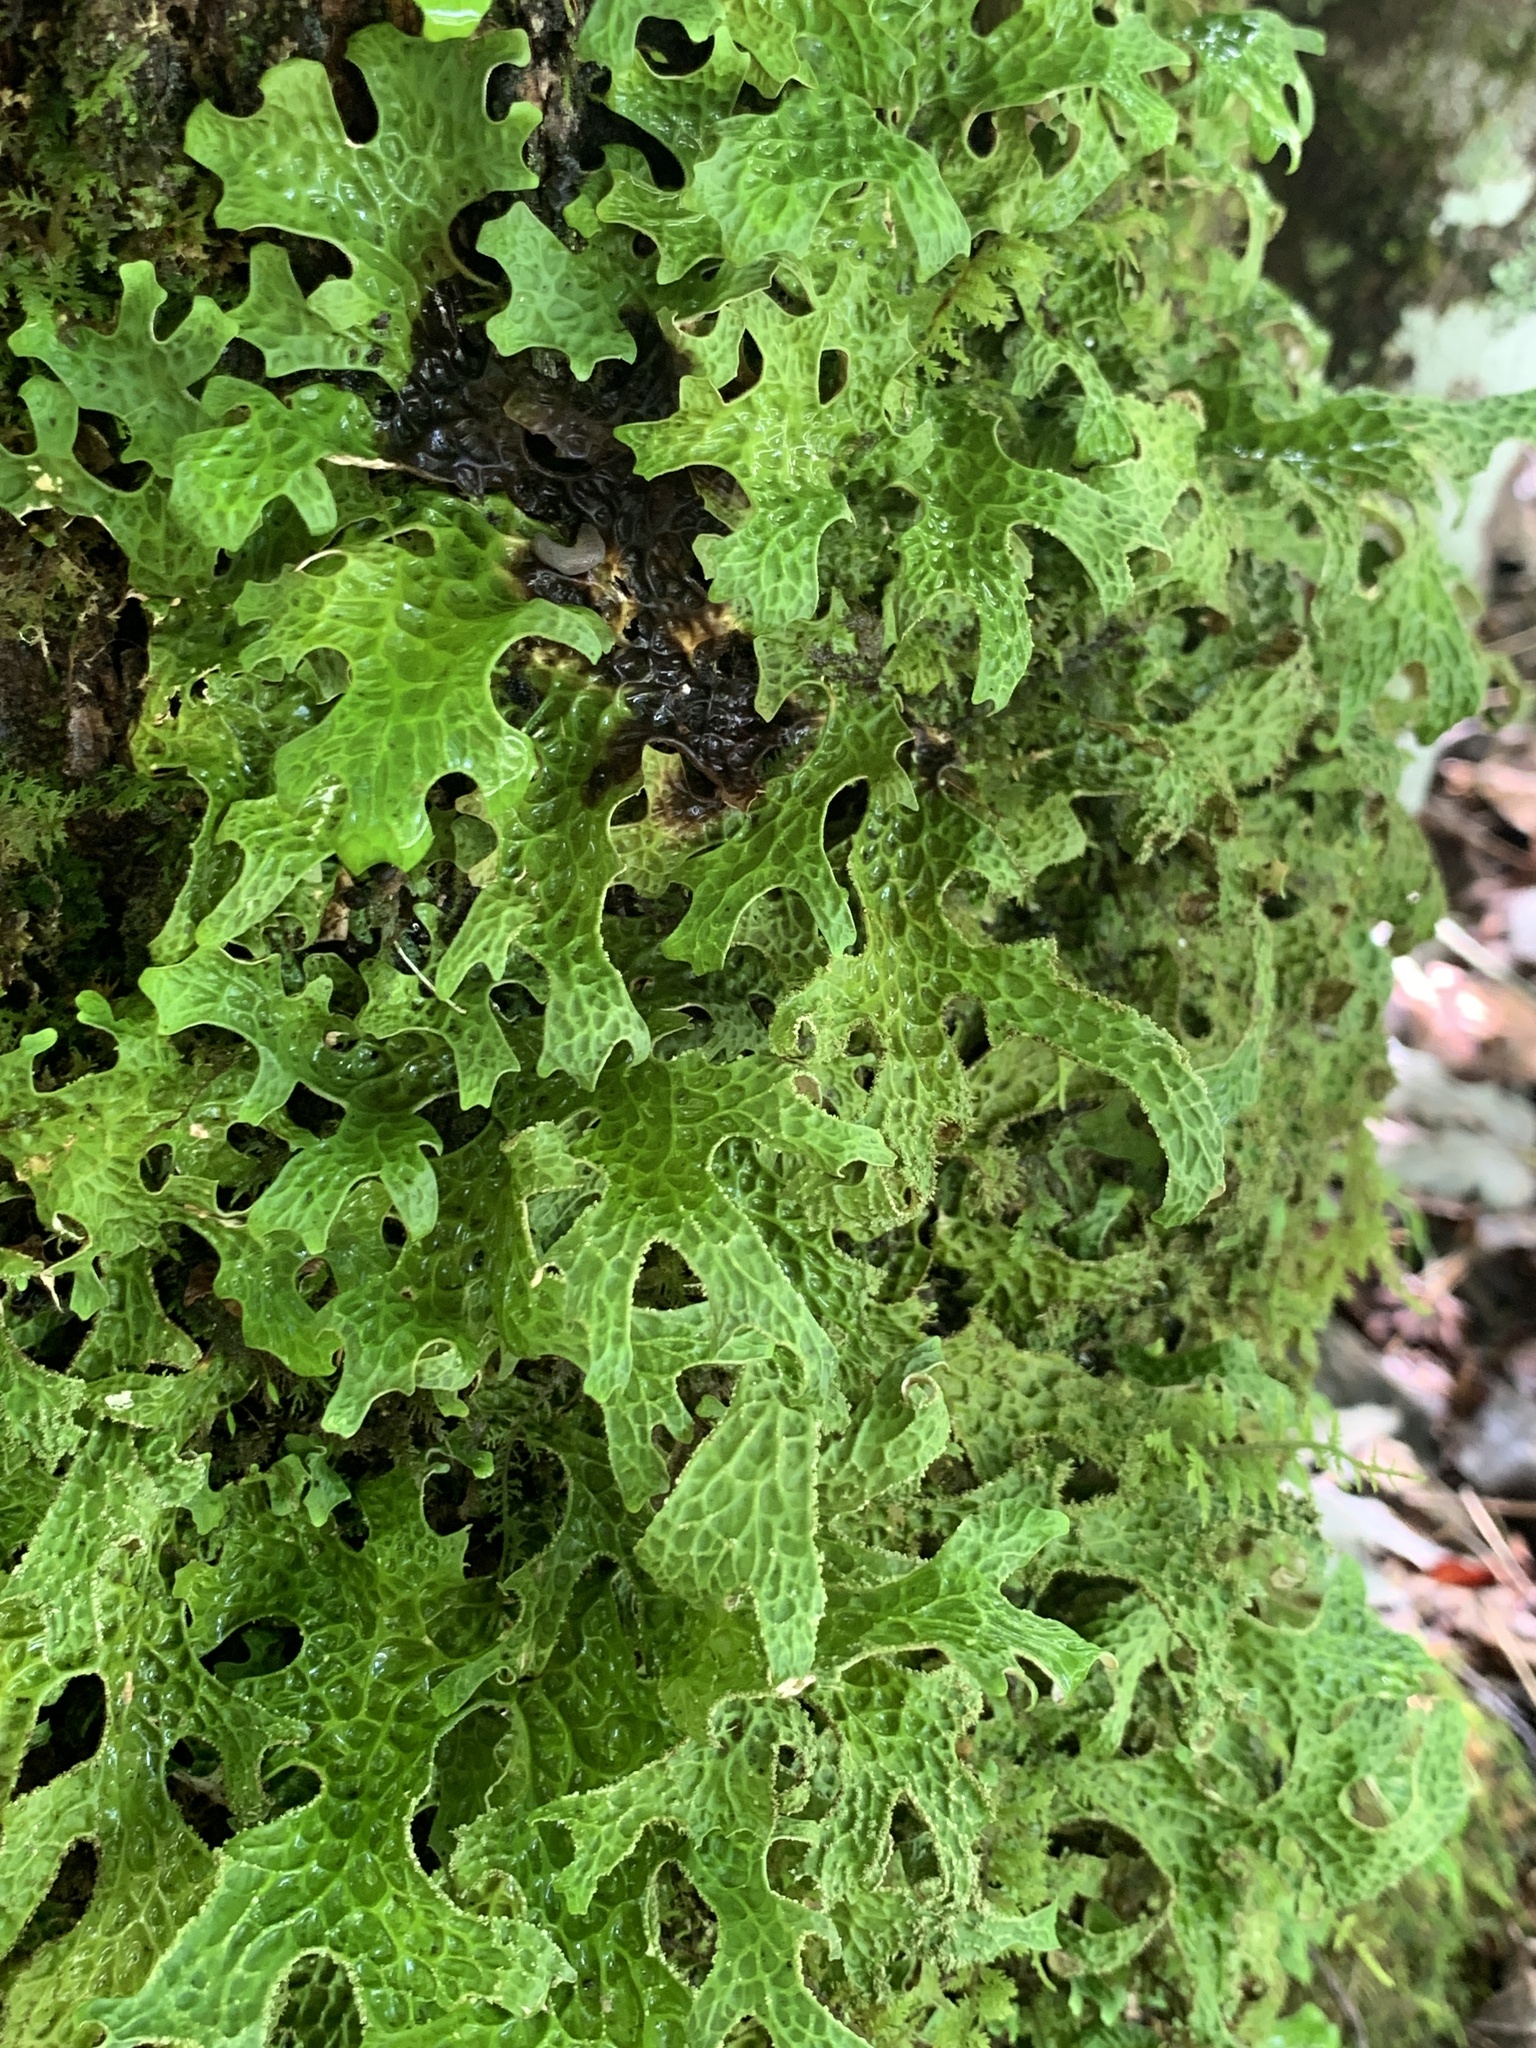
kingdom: Fungi
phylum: Ascomycota
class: Lecanoromycetes
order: Peltigerales
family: Lobariaceae
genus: Lobaria
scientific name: Lobaria pulmonaria
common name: Lungwort
